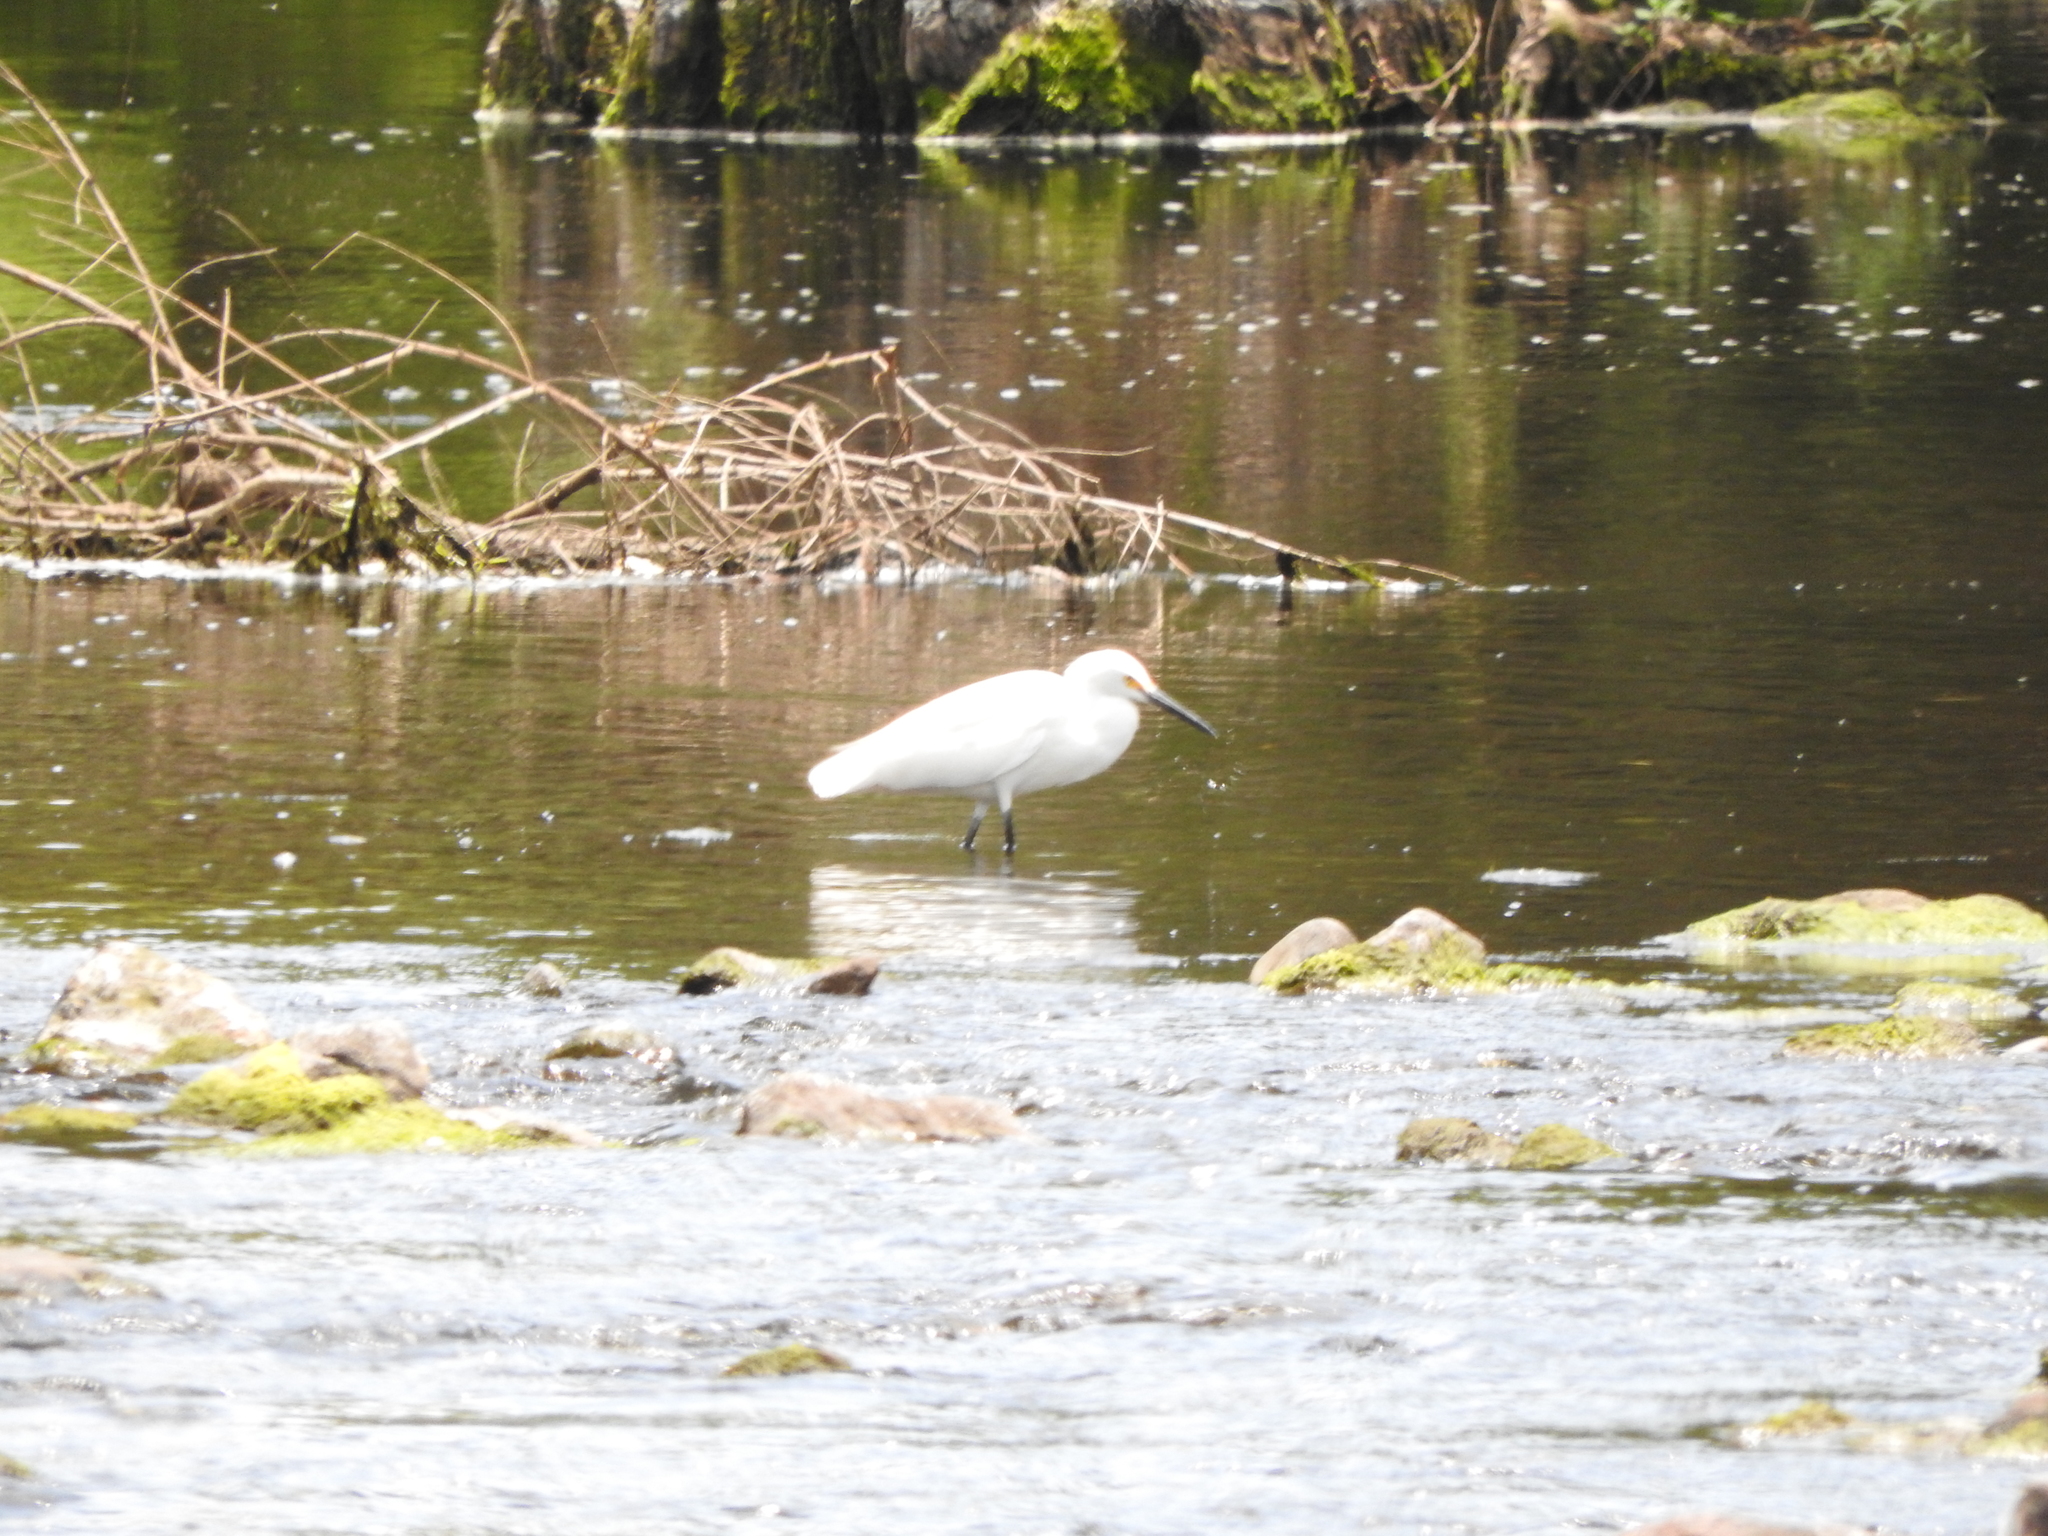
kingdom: Animalia
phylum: Chordata
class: Aves
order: Pelecaniformes
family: Ardeidae
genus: Egretta
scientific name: Egretta thula
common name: Snowy egret
